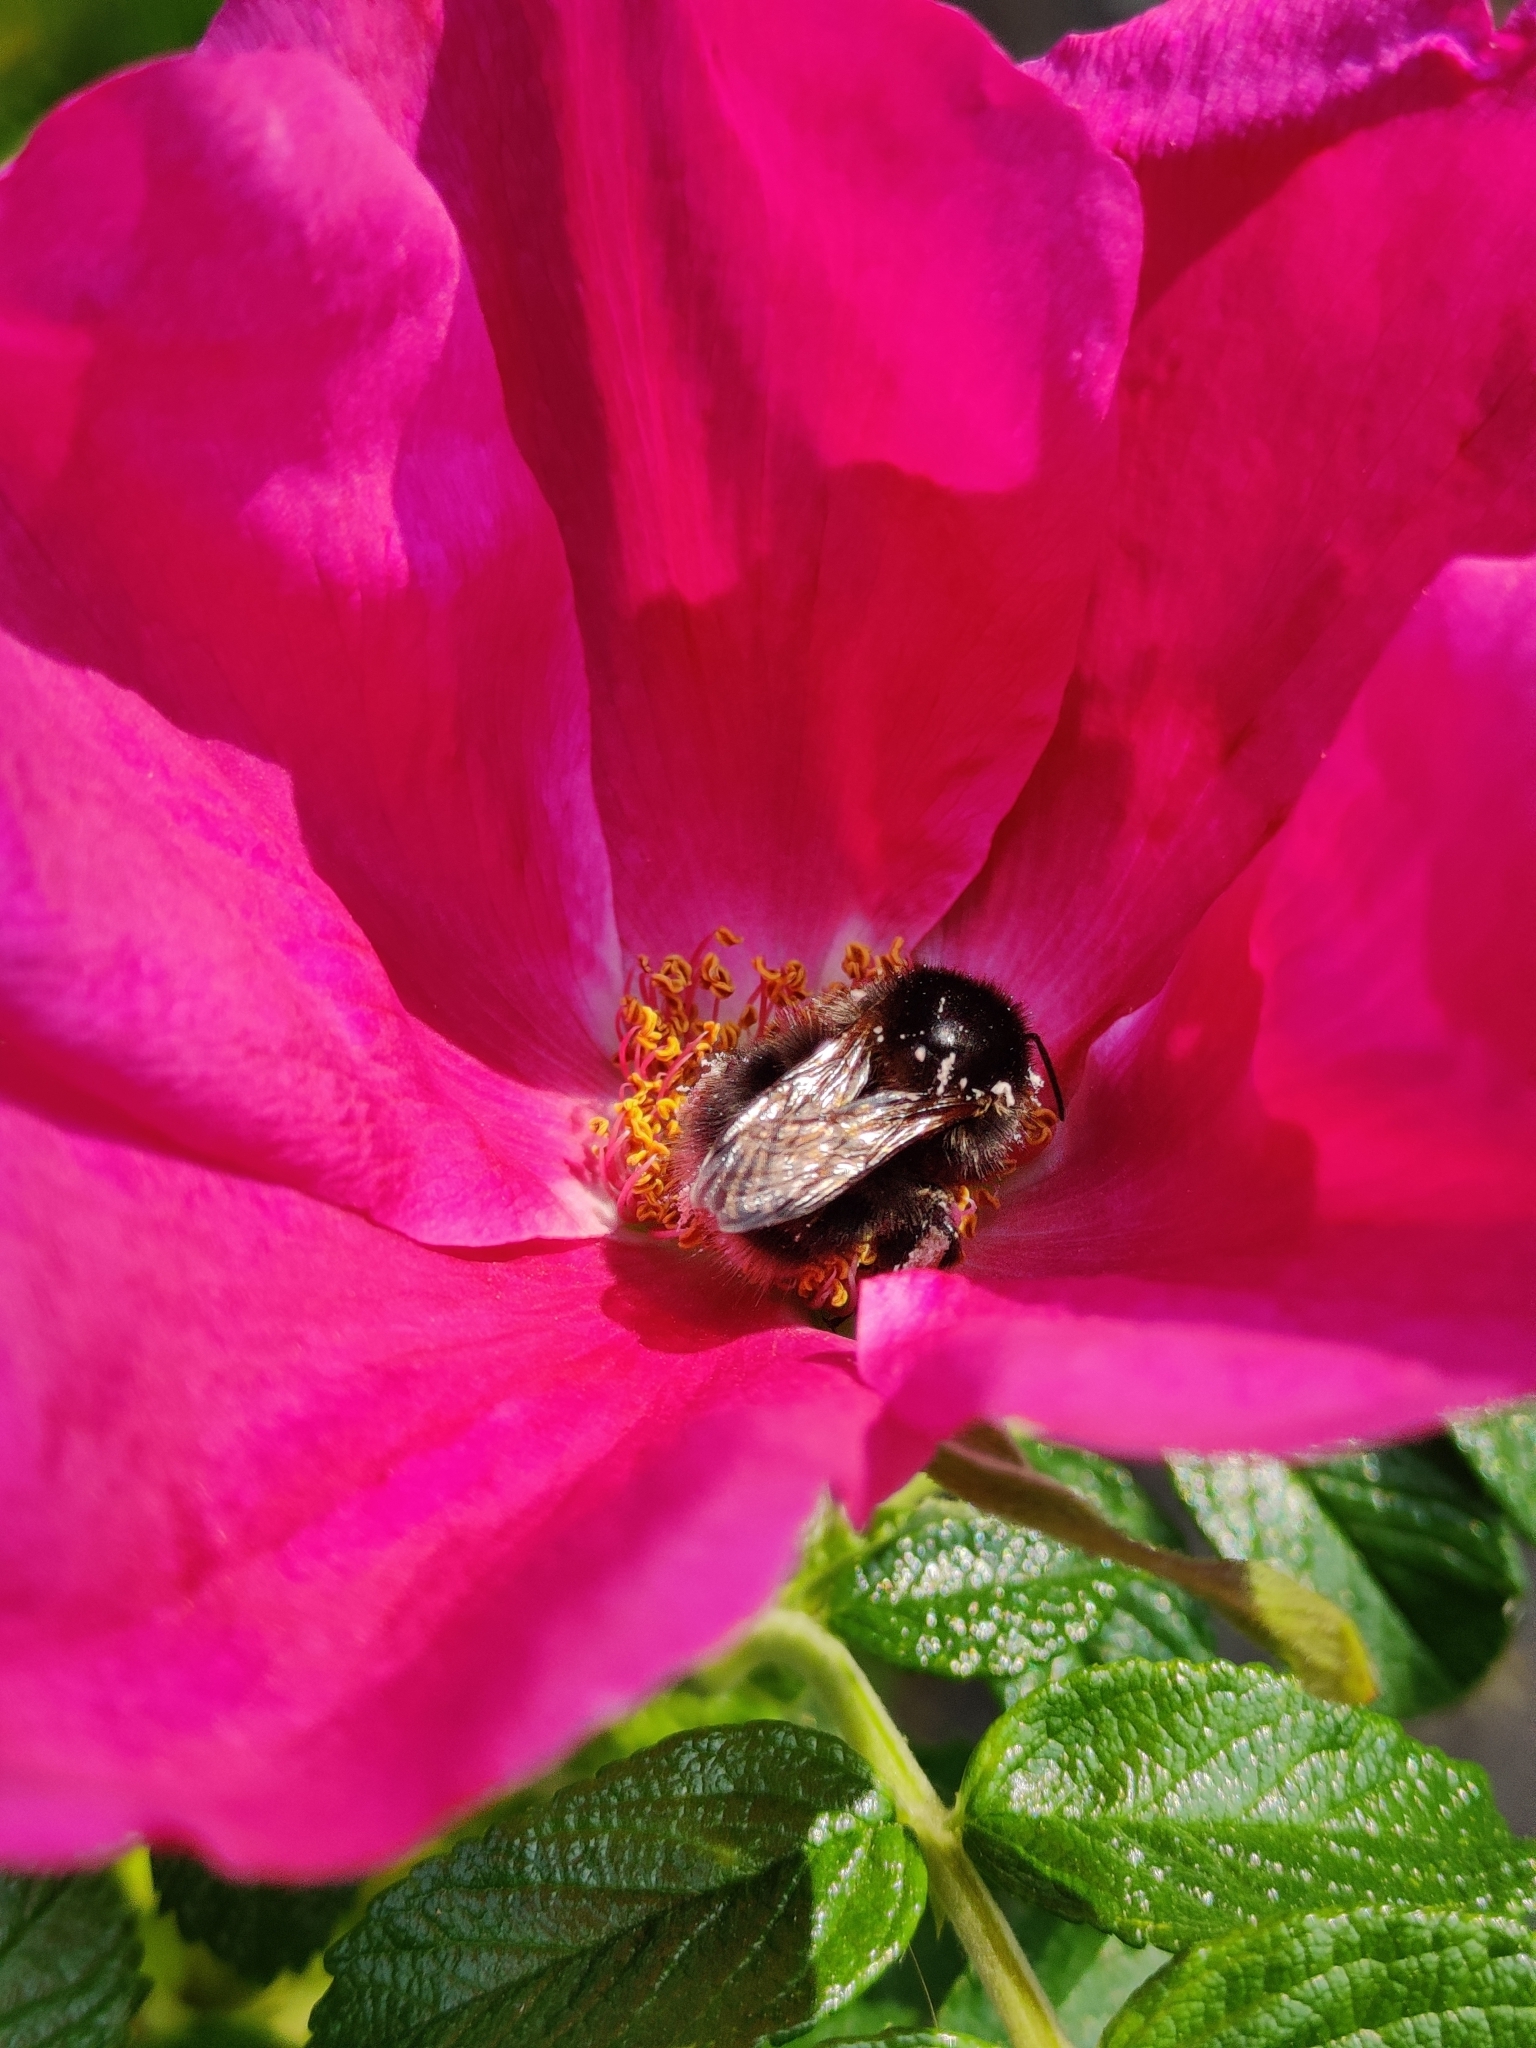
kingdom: Animalia
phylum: Arthropoda
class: Insecta
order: Hymenoptera
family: Apidae
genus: Bombus
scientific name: Bombus hypnorum
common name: New garden bumblebee
